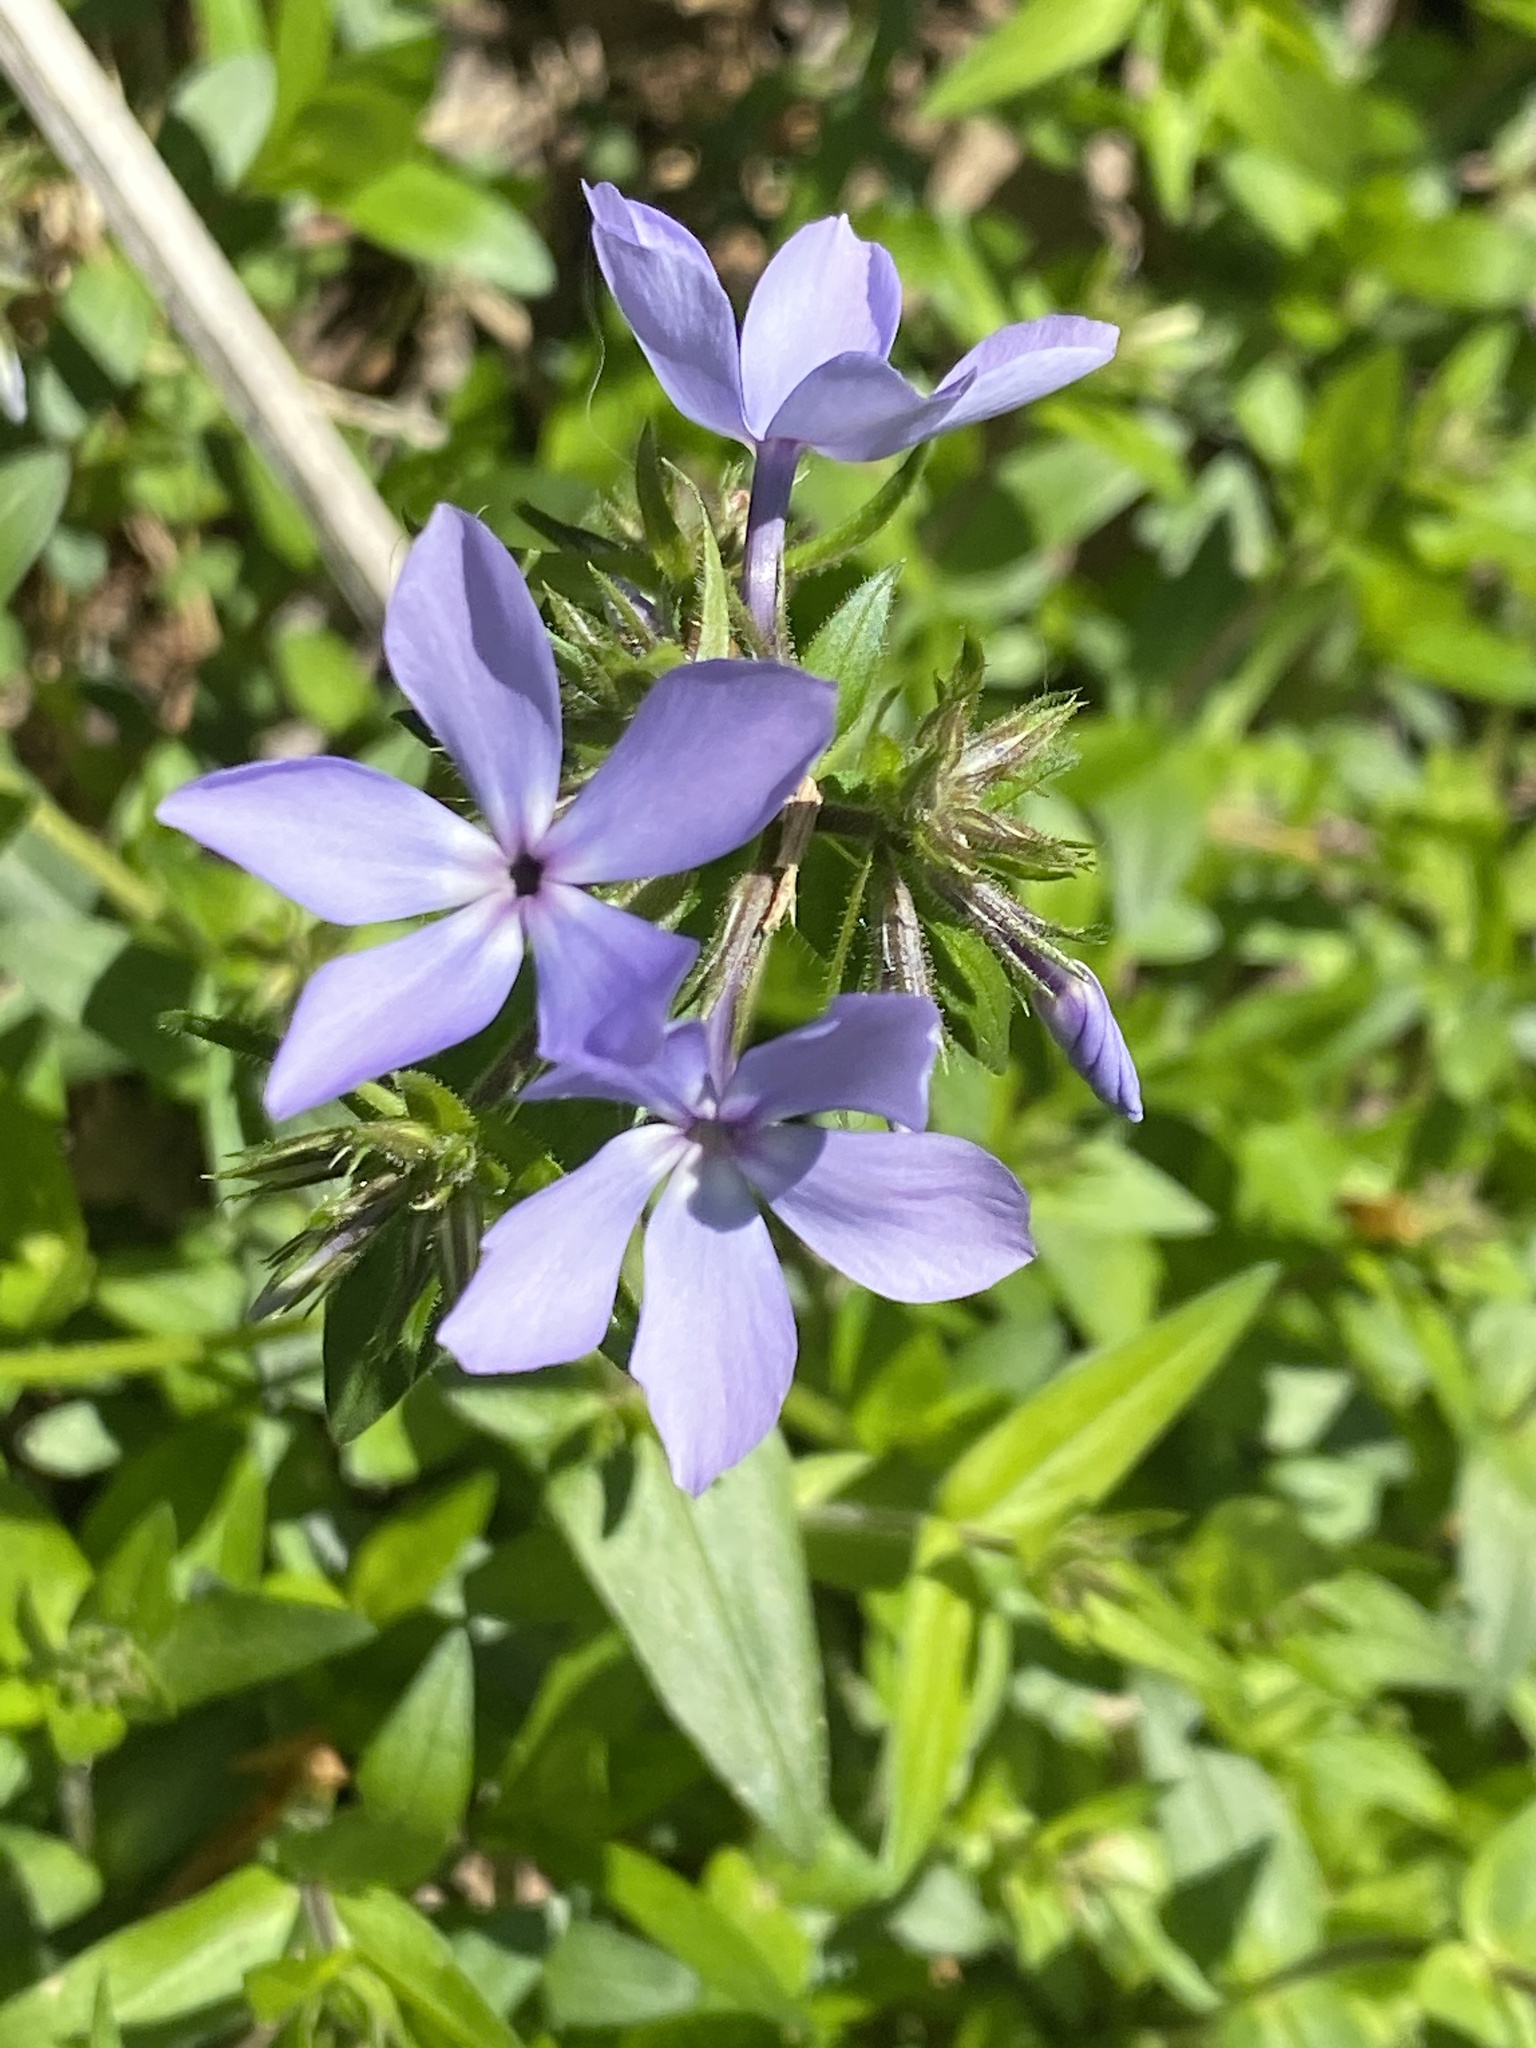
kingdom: Plantae
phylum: Tracheophyta
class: Magnoliopsida
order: Ericales
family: Polemoniaceae
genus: Phlox
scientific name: Phlox divaricata
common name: Blue phlox
